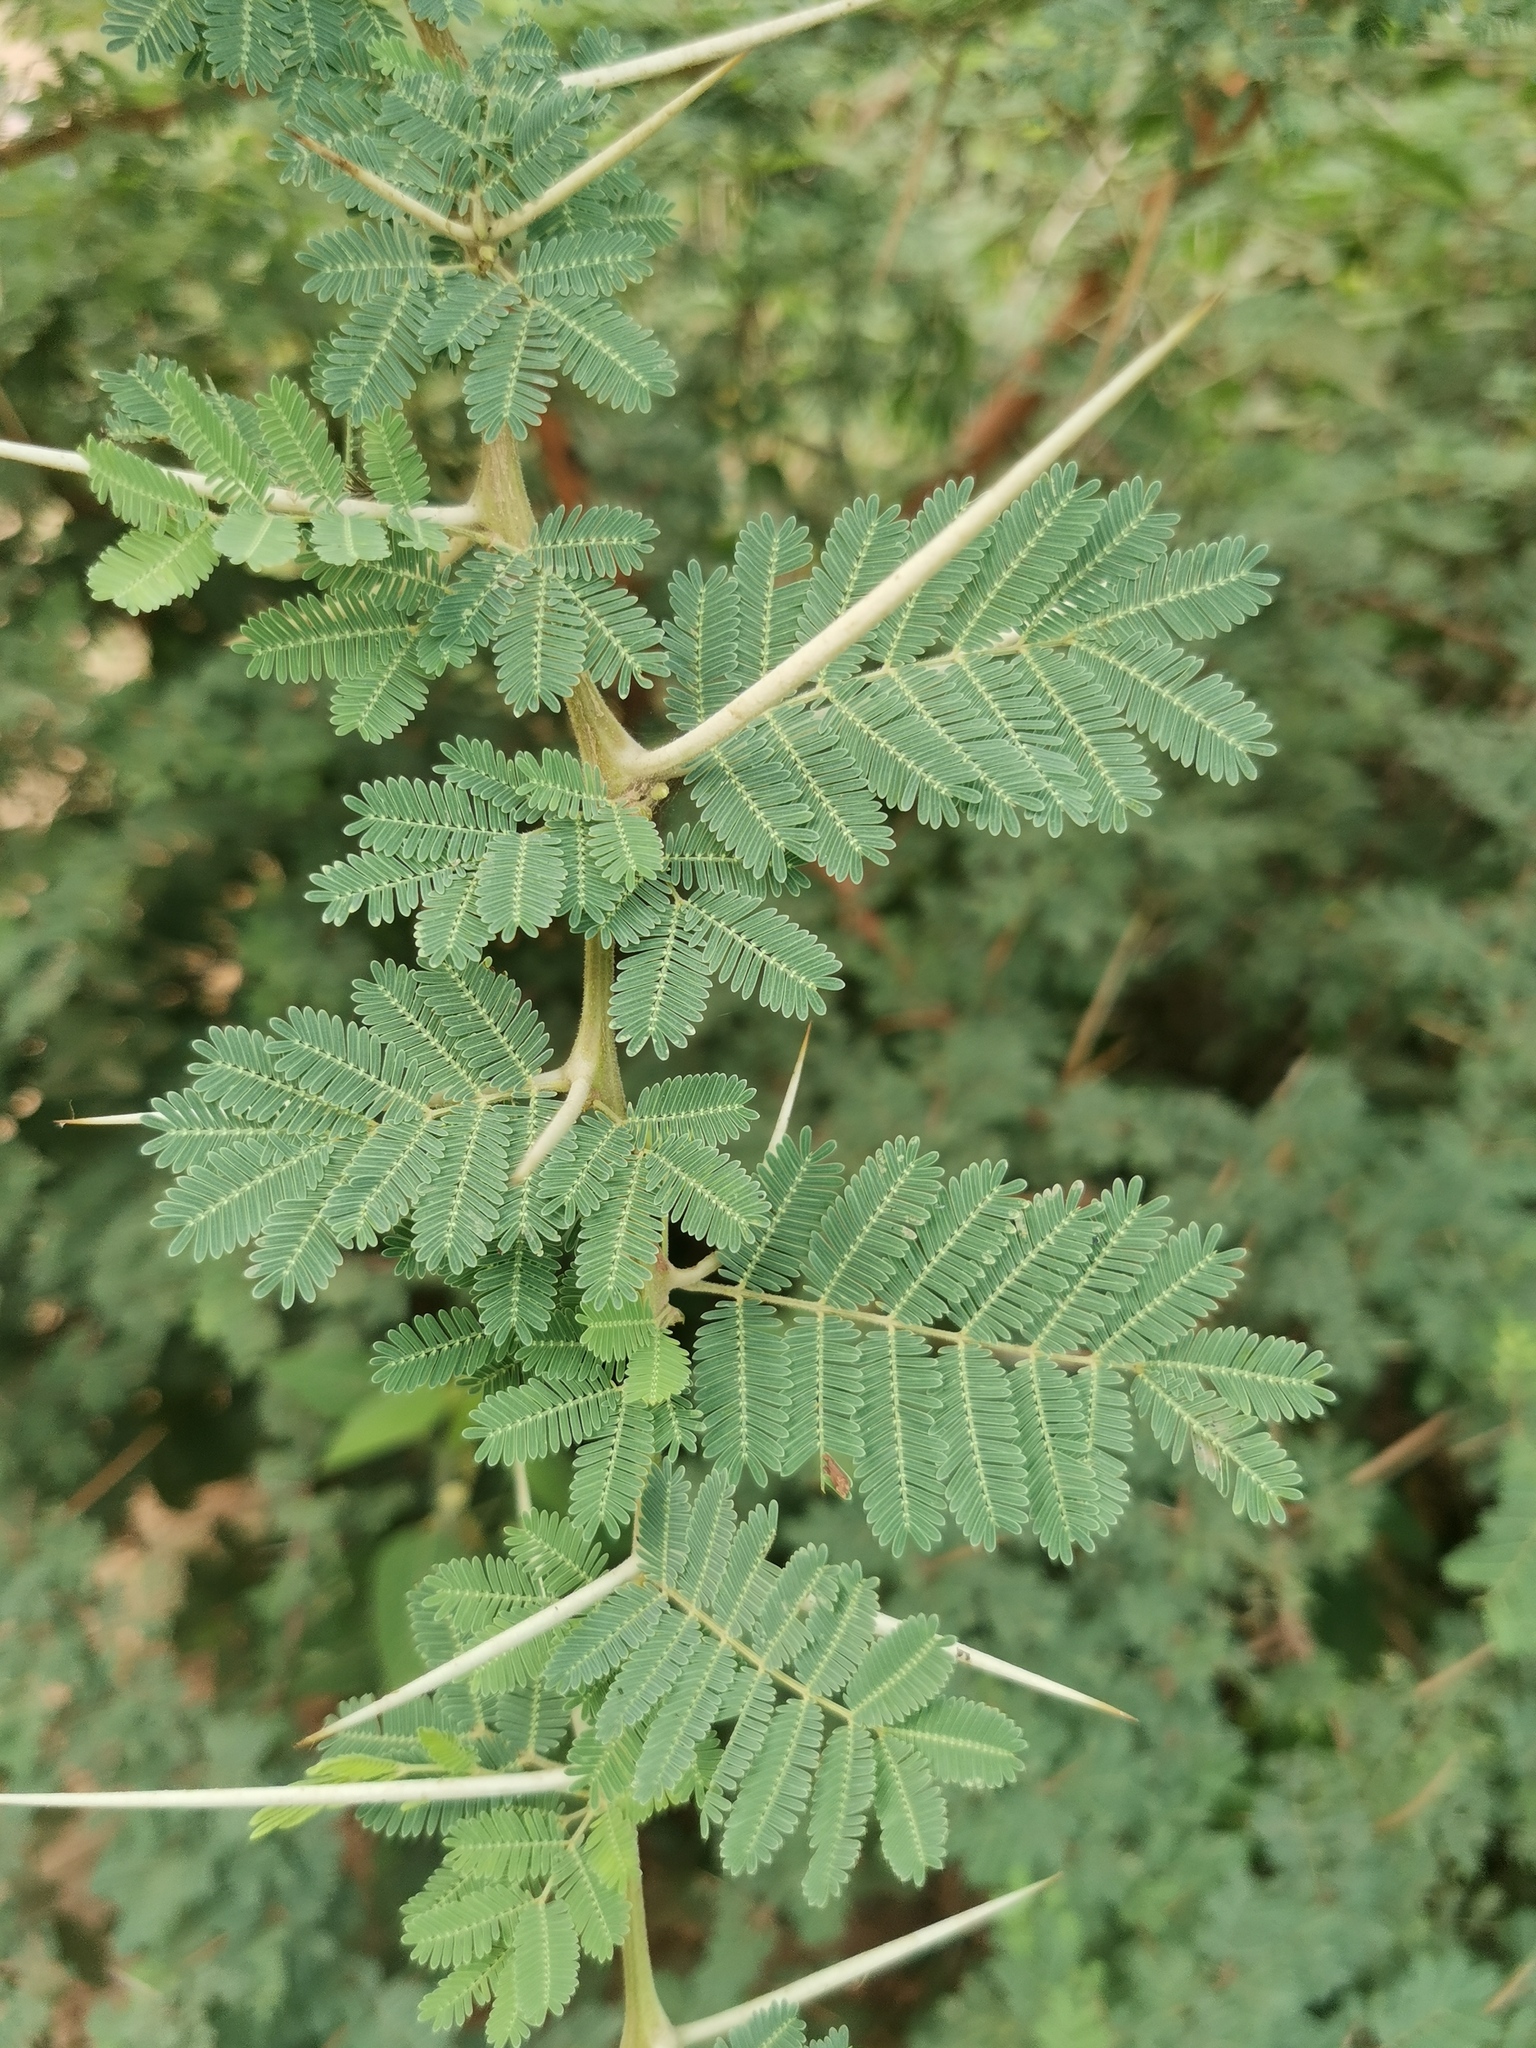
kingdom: Plantae
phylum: Tracheophyta
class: Magnoliopsida
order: Fabales
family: Fabaceae
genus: Vachellia
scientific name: Vachellia nilotica
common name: Arabic gumtree
